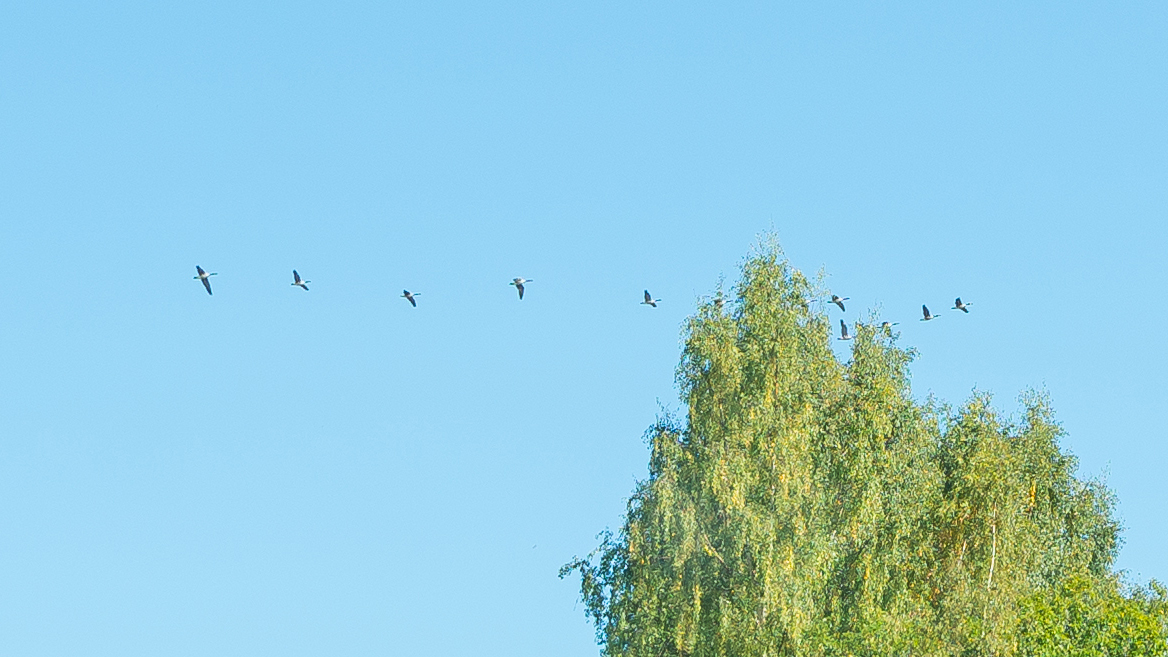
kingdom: Animalia
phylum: Chordata
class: Aves
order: Gruiformes
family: Gruidae
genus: Grus
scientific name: Grus grus
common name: Common crane
